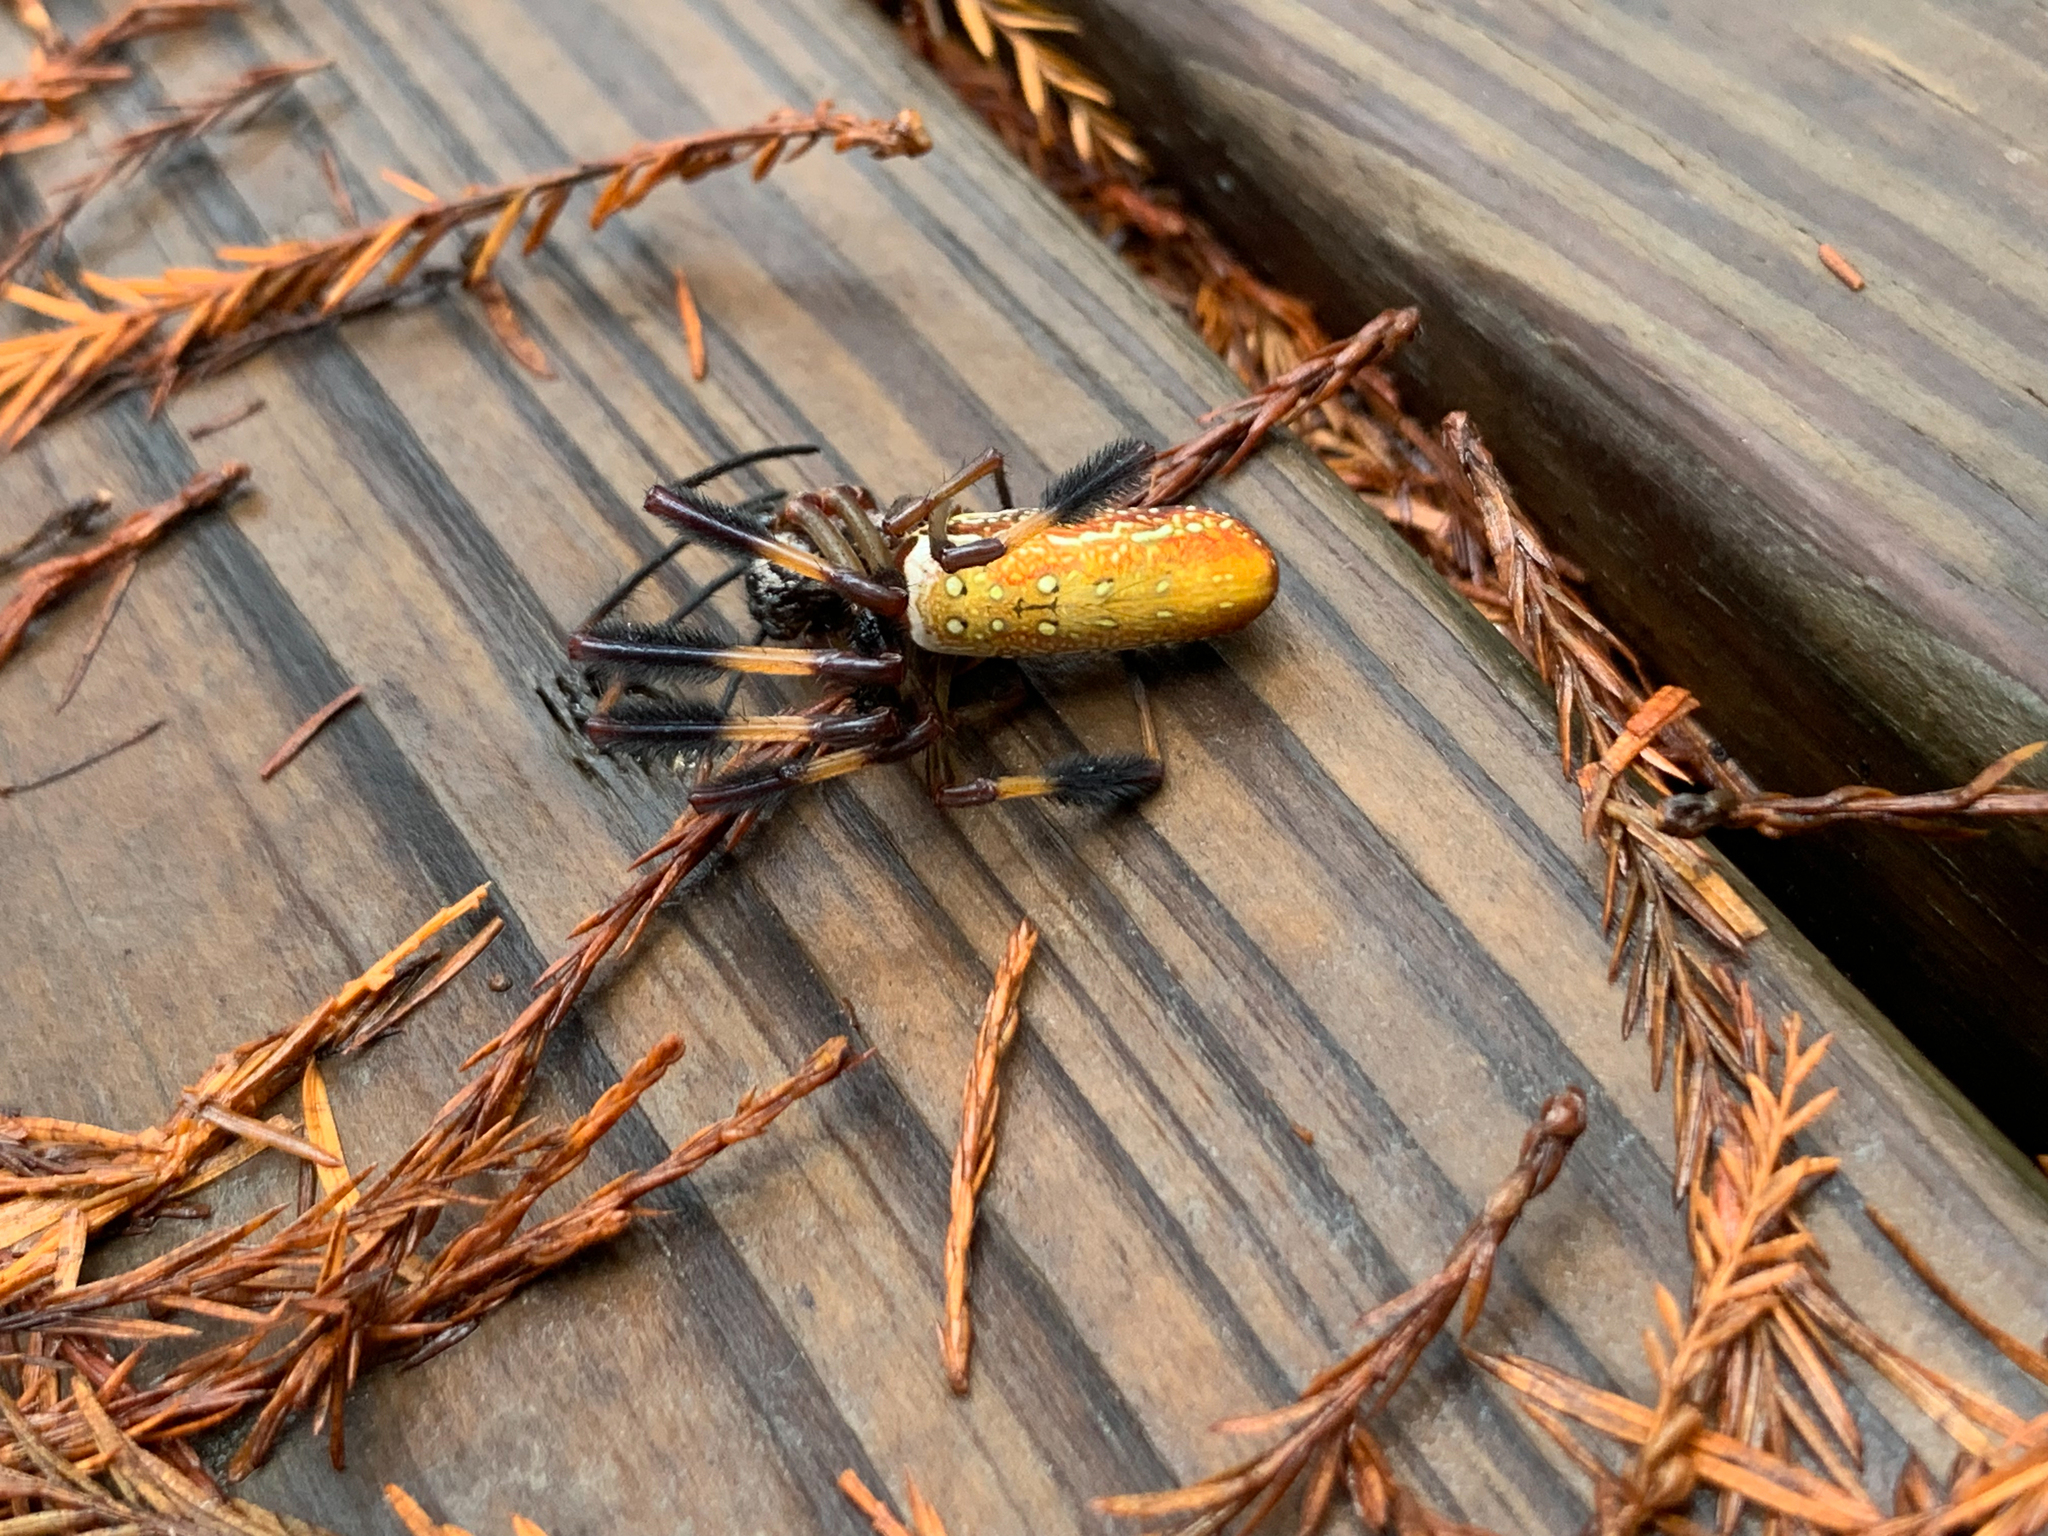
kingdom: Animalia
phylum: Arthropoda
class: Arachnida
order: Araneae
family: Araneidae
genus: Trichonephila
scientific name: Trichonephila clavipes
